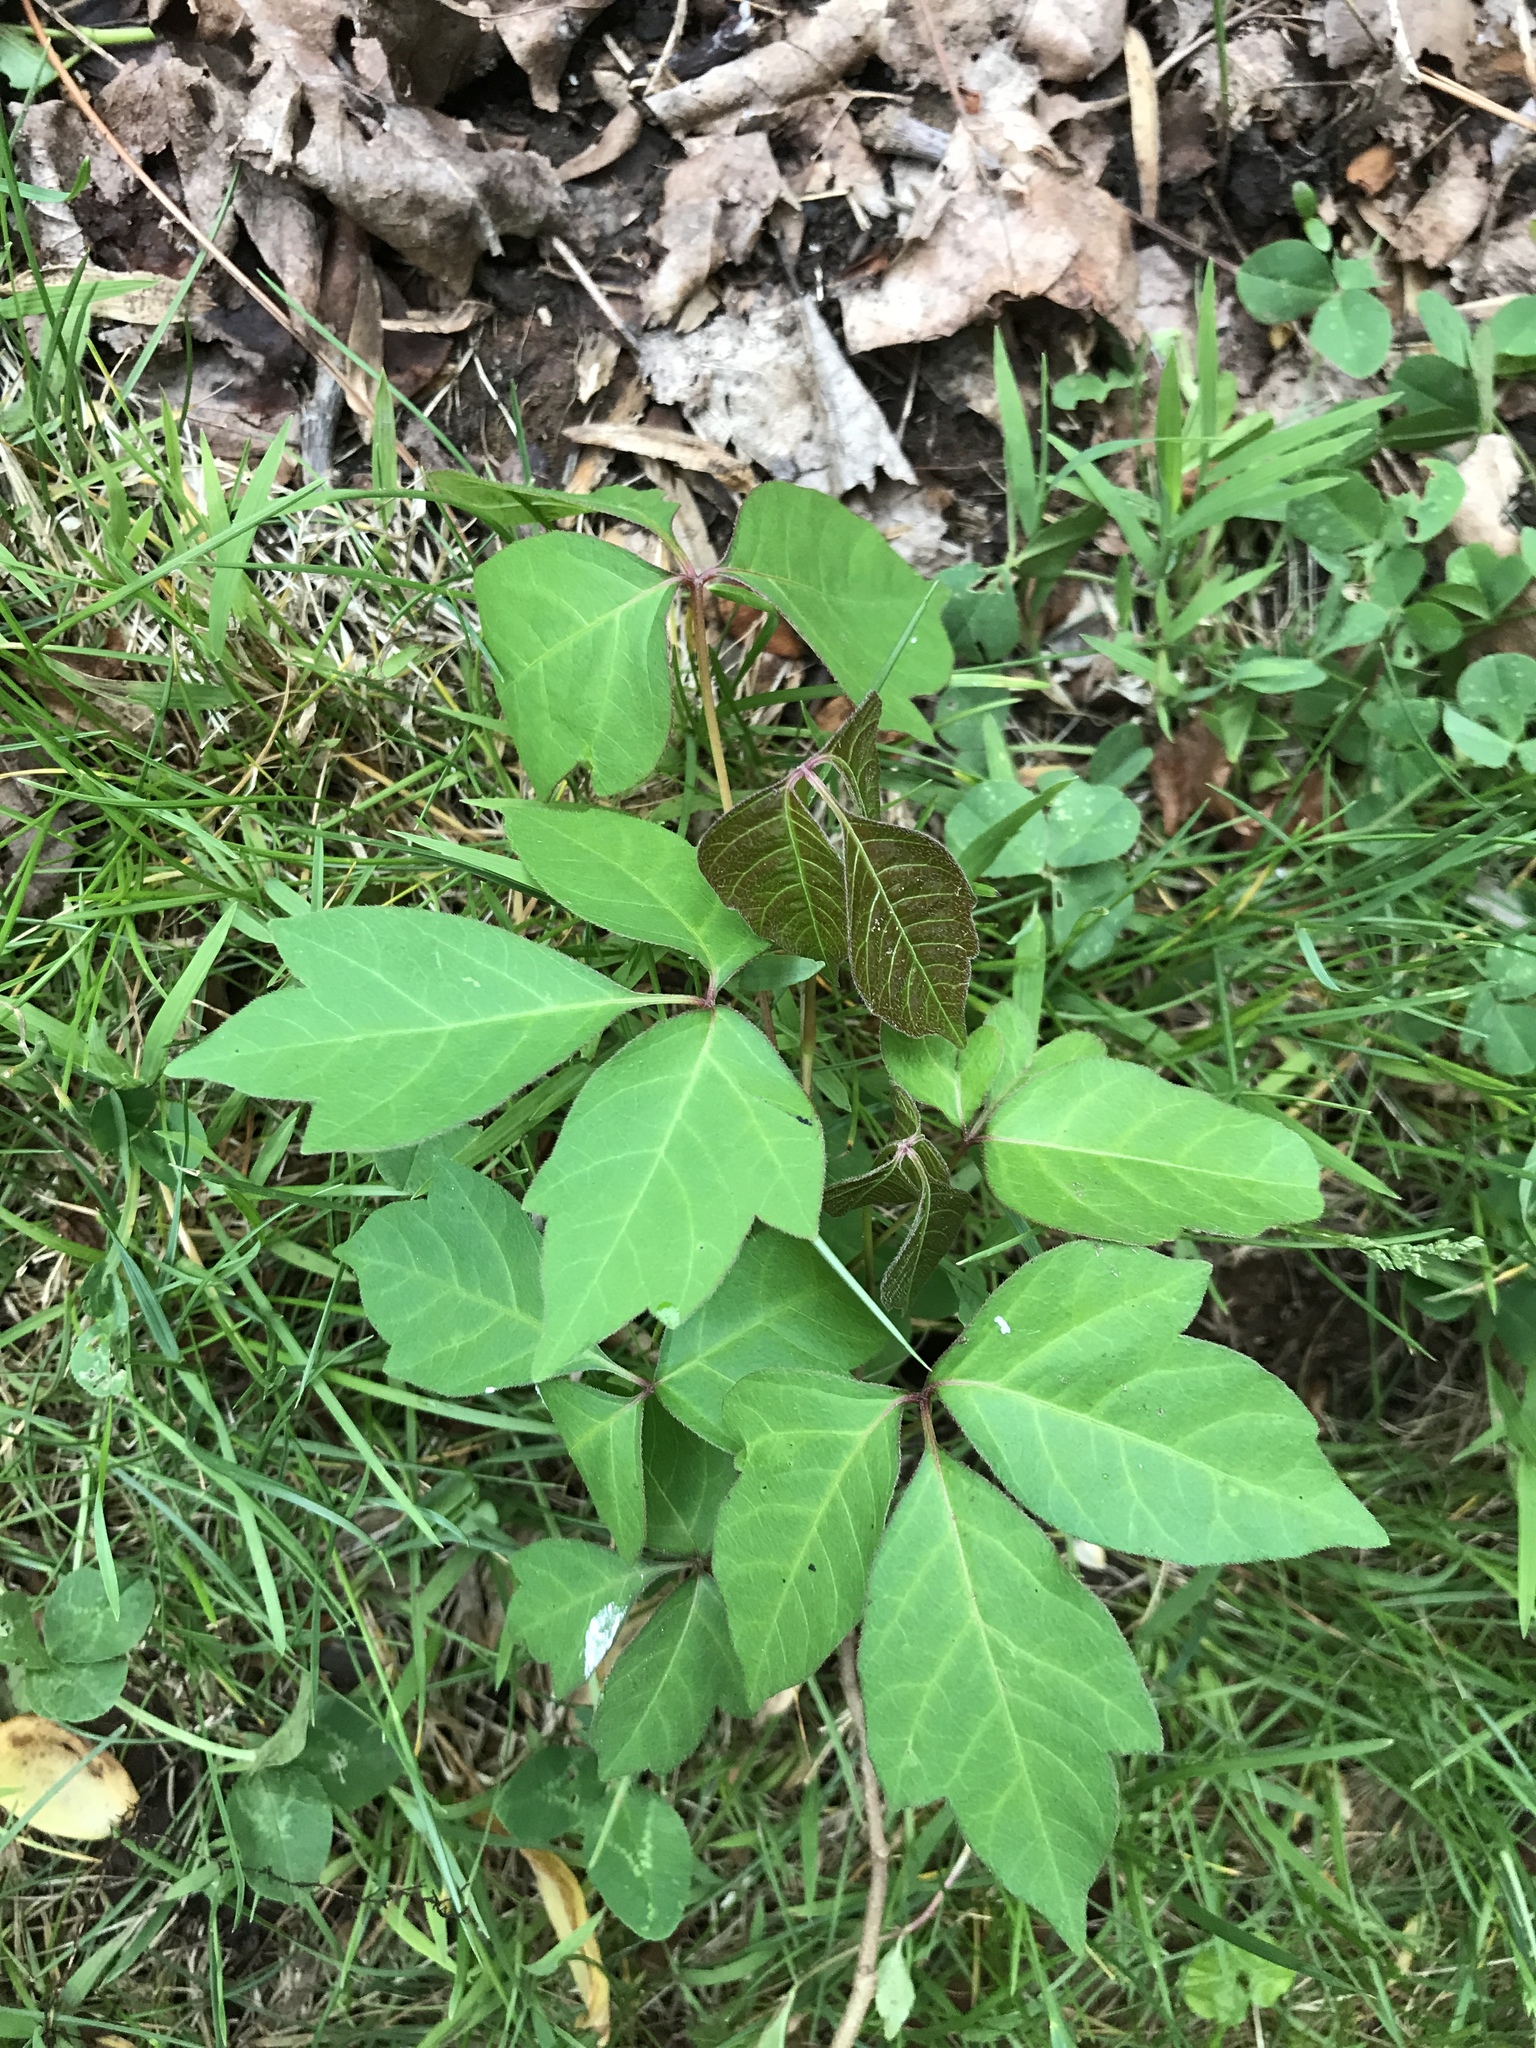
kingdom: Plantae
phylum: Tracheophyta
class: Magnoliopsida
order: Sapindales
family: Anacardiaceae
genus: Toxicodendron
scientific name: Toxicodendron radicans
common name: Poison ivy
